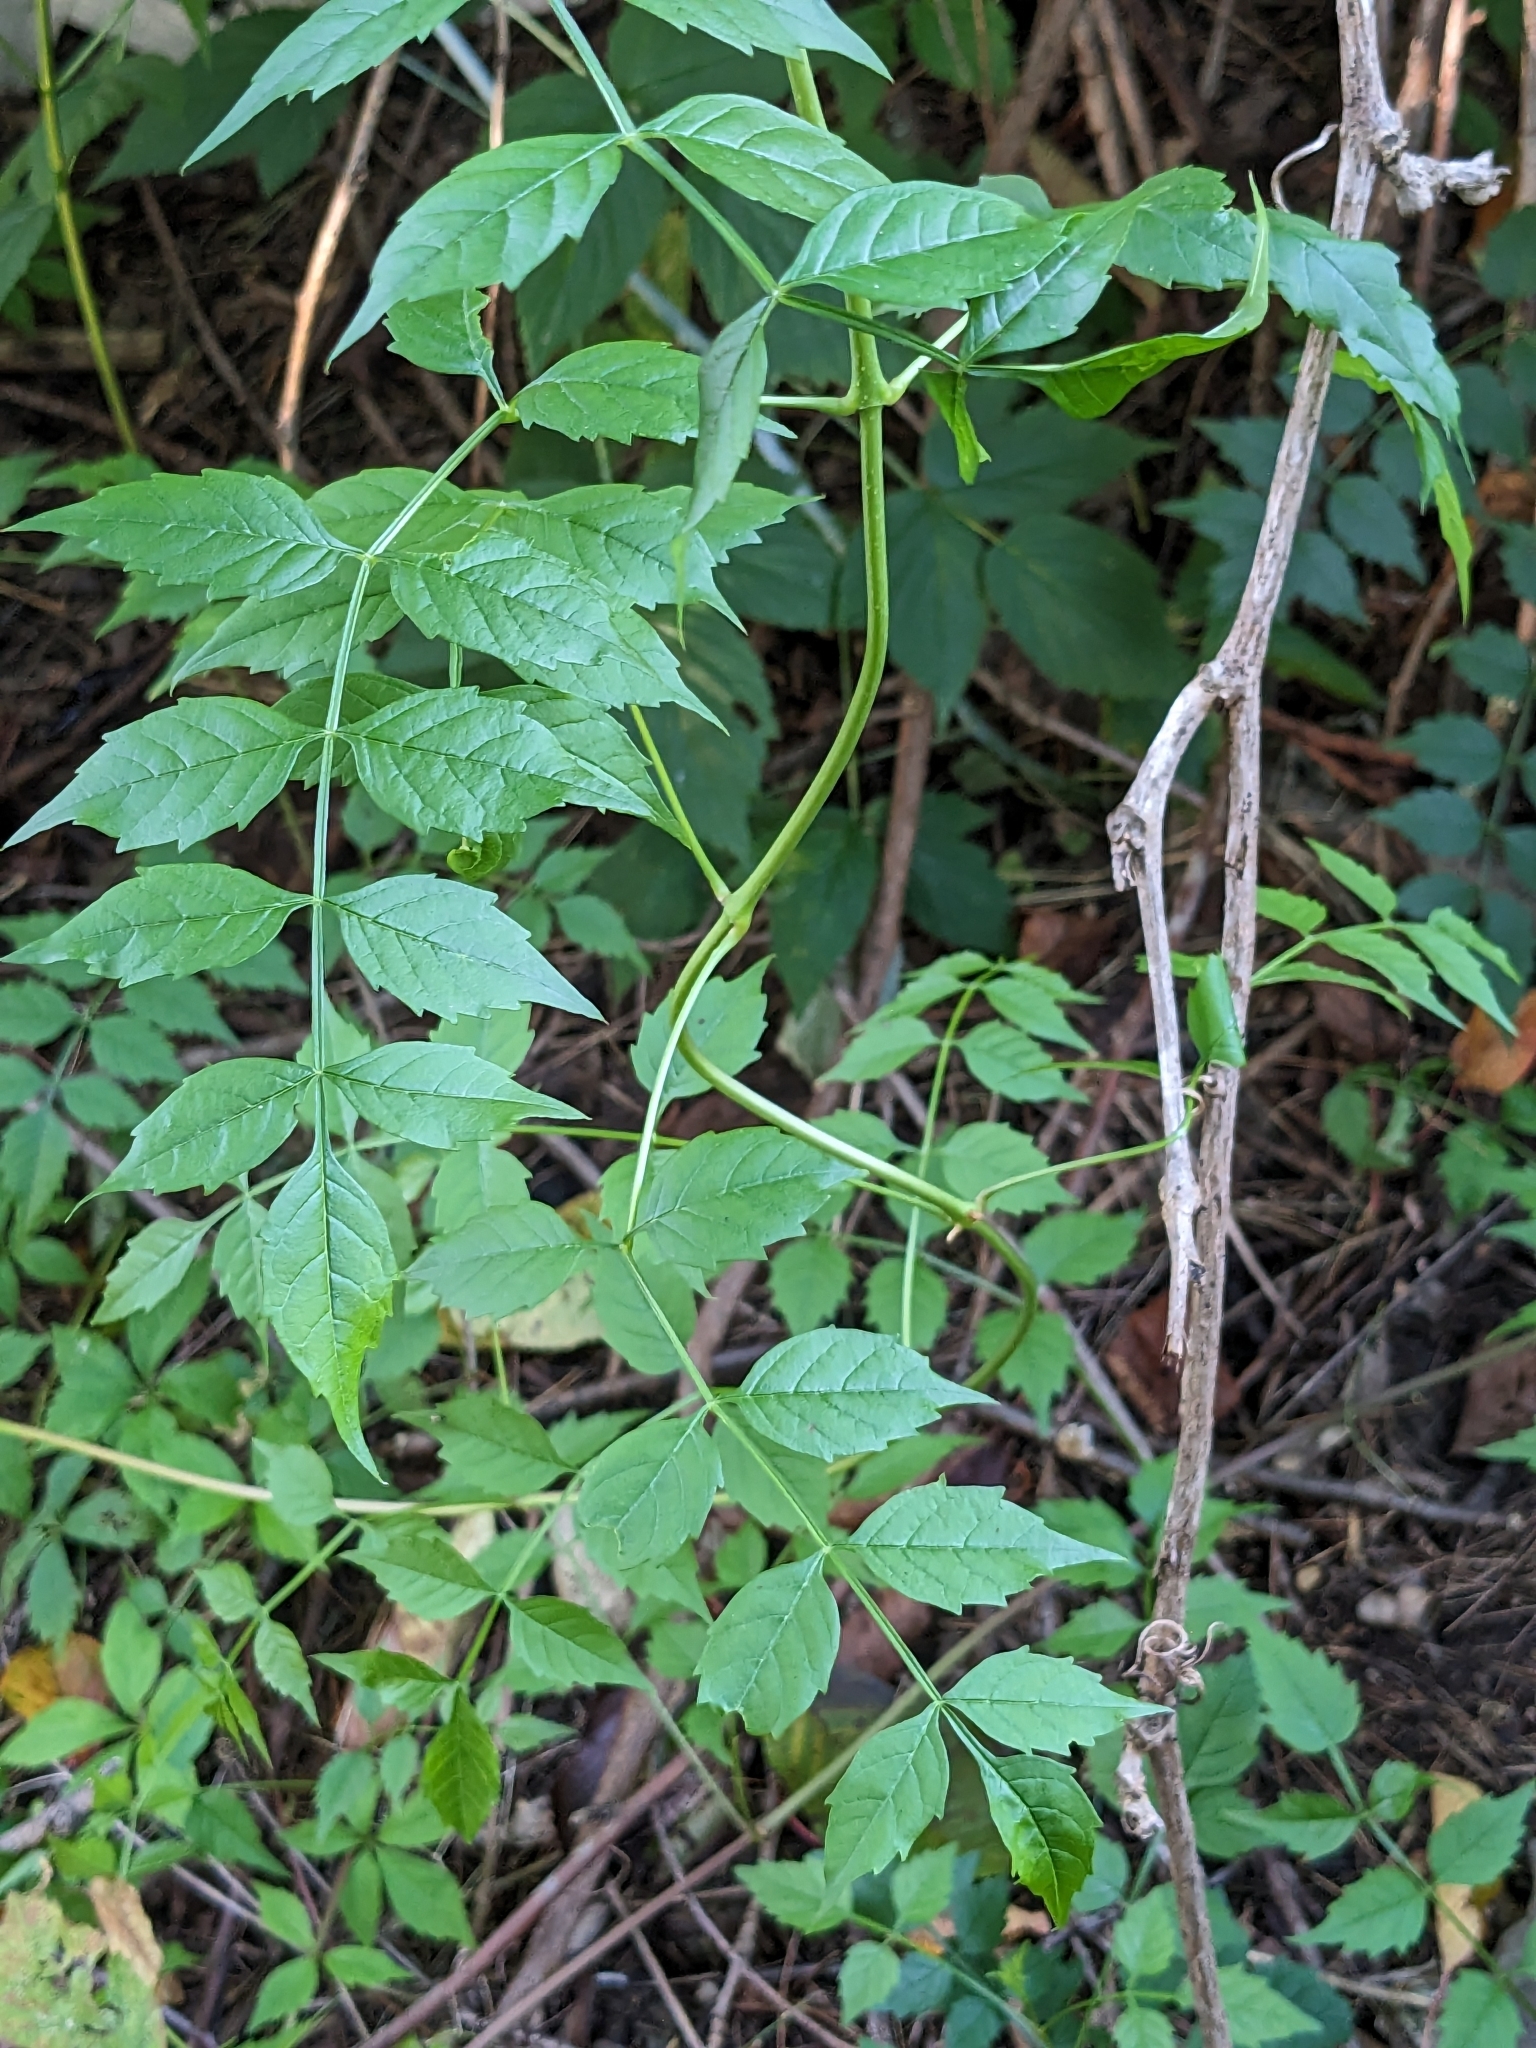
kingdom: Plantae
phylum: Tracheophyta
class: Magnoliopsida
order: Lamiales
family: Bignoniaceae
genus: Campsis
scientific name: Campsis radicans
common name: Trumpet-creeper
